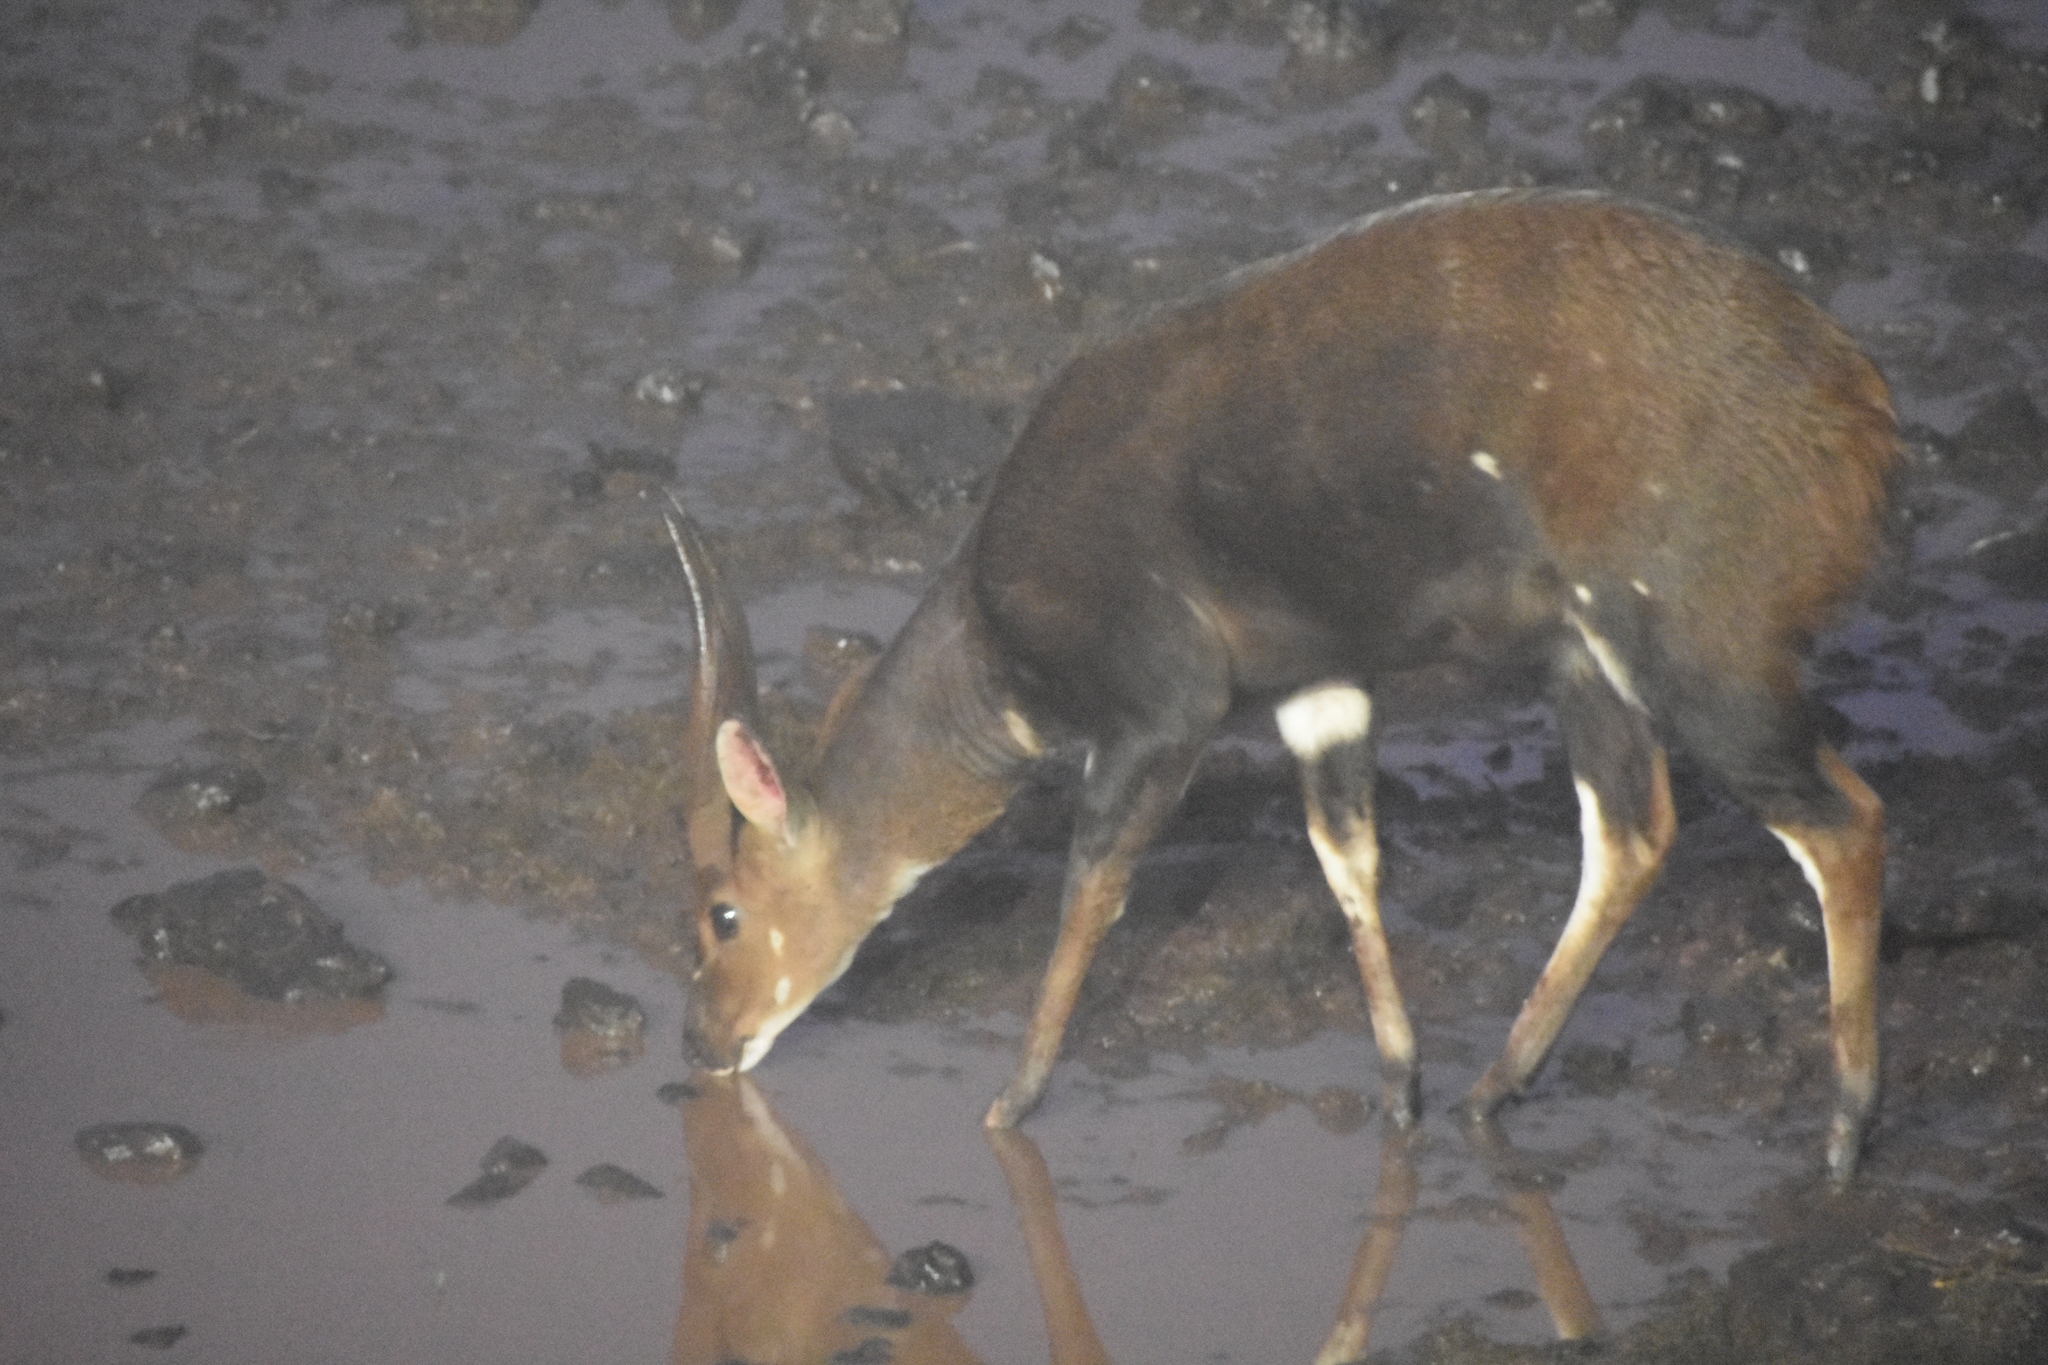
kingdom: Animalia
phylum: Chordata
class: Mammalia
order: Artiodactyla
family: Bovidae
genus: Tragelaphus
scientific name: Tragelaphus scriptus
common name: Bushbuck
